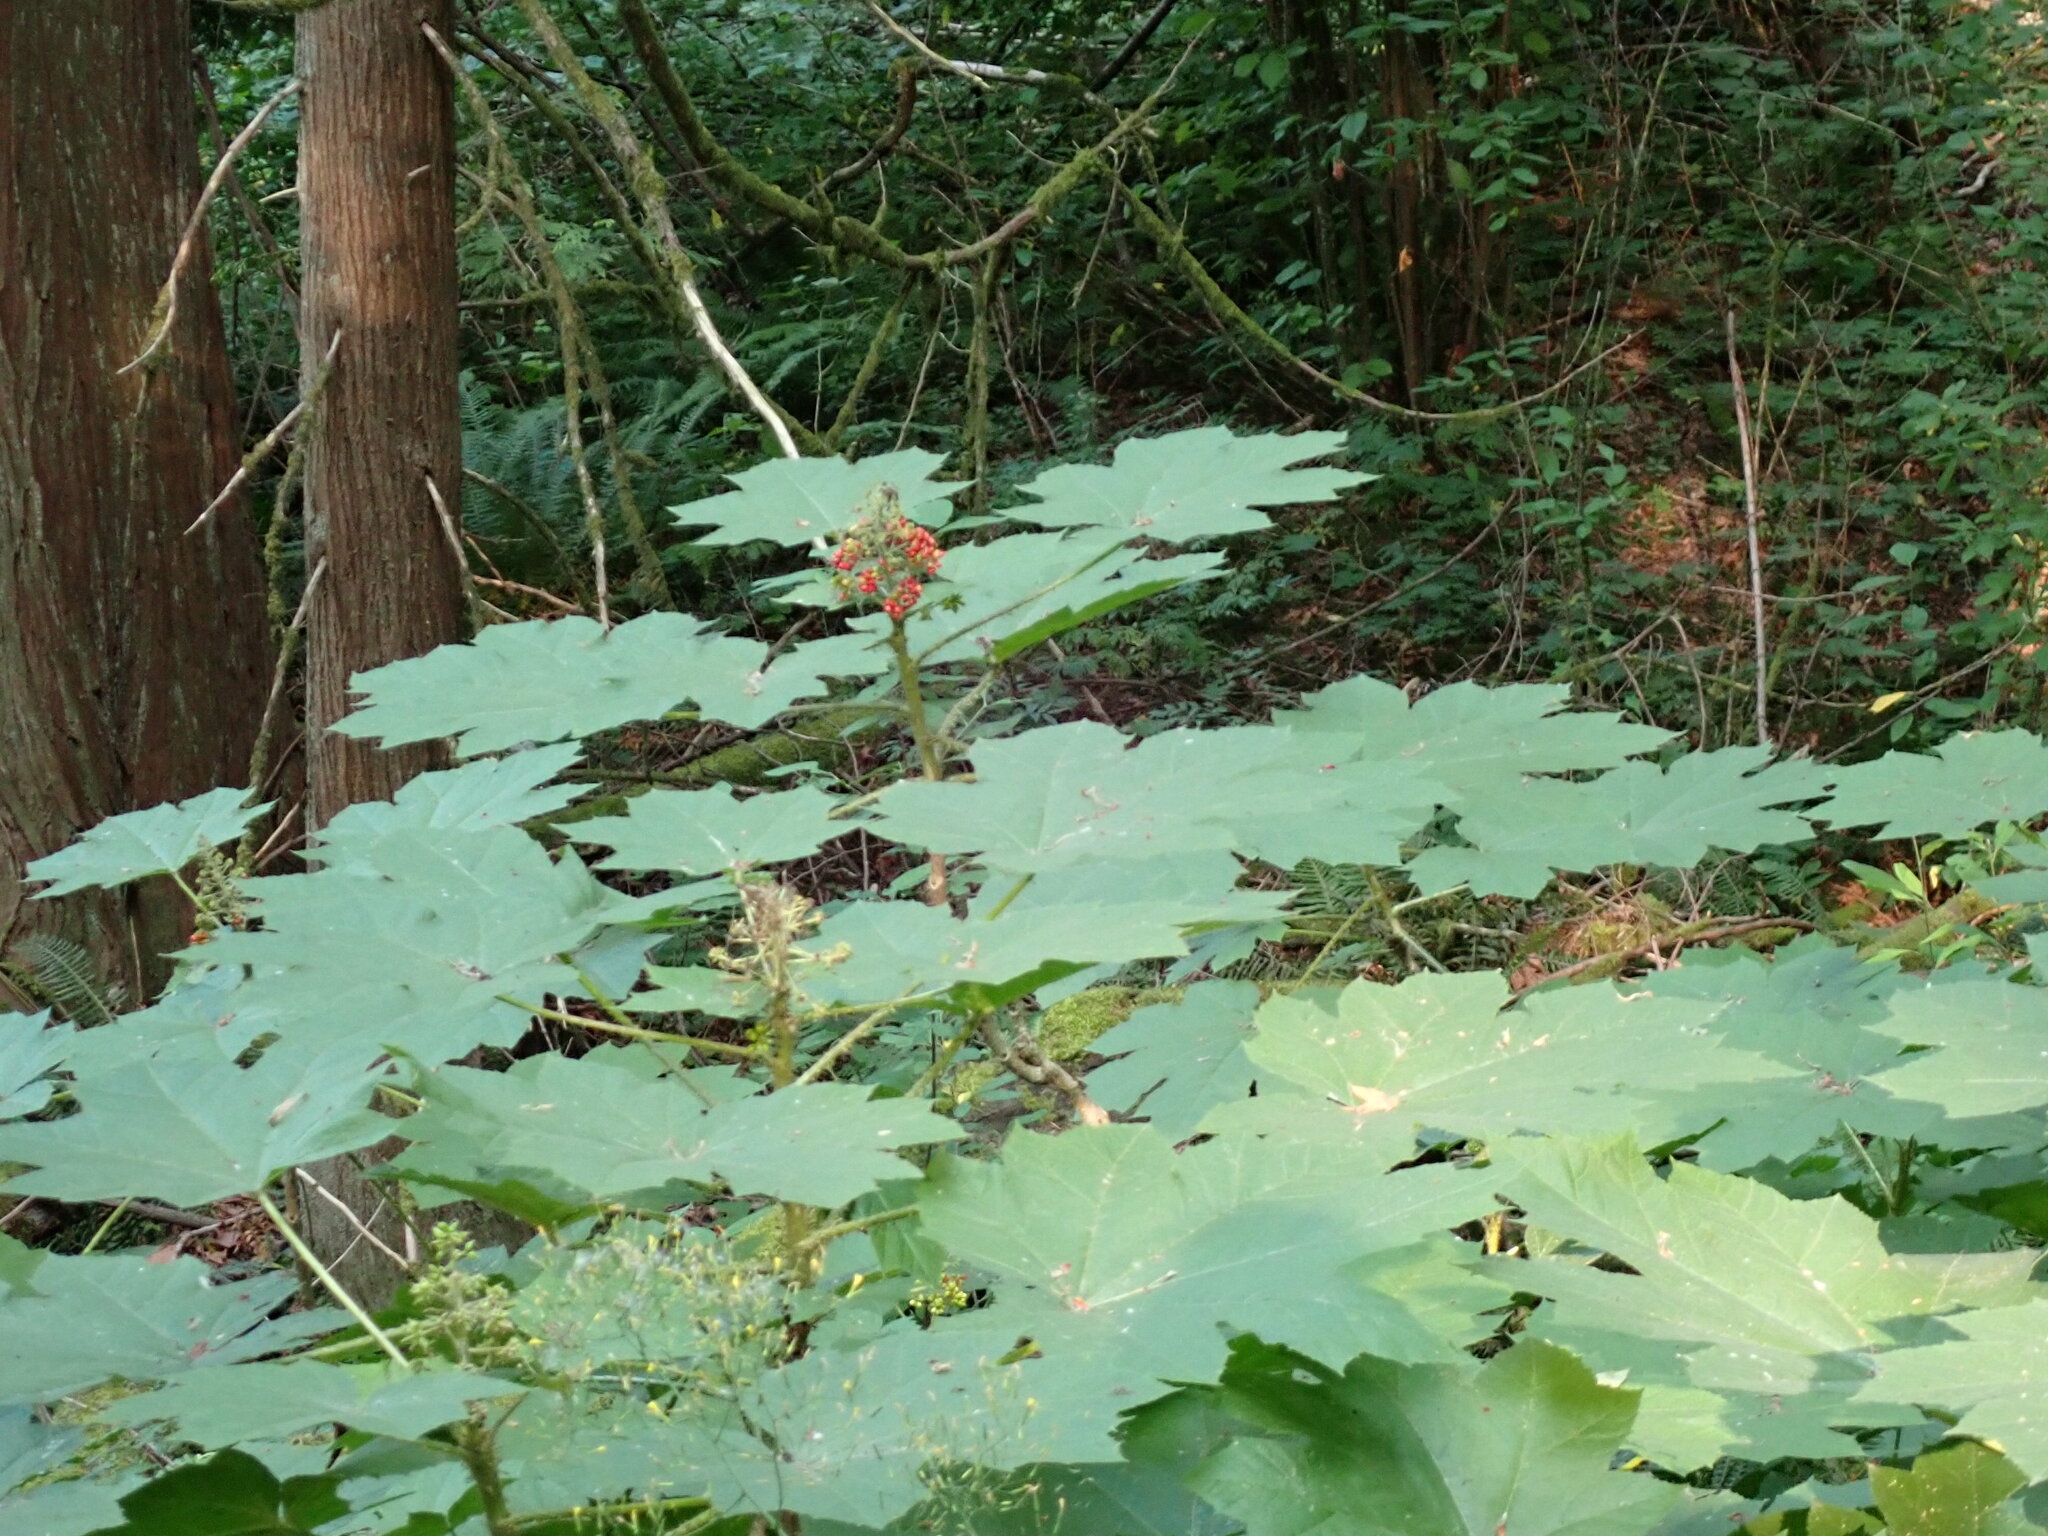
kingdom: Plantae
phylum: Tracheophyta
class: Magnoliopsida
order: Apiales
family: Araliaceae
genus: Oplopanax
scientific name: Oplopanax horridus
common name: Devil's walking-stick
